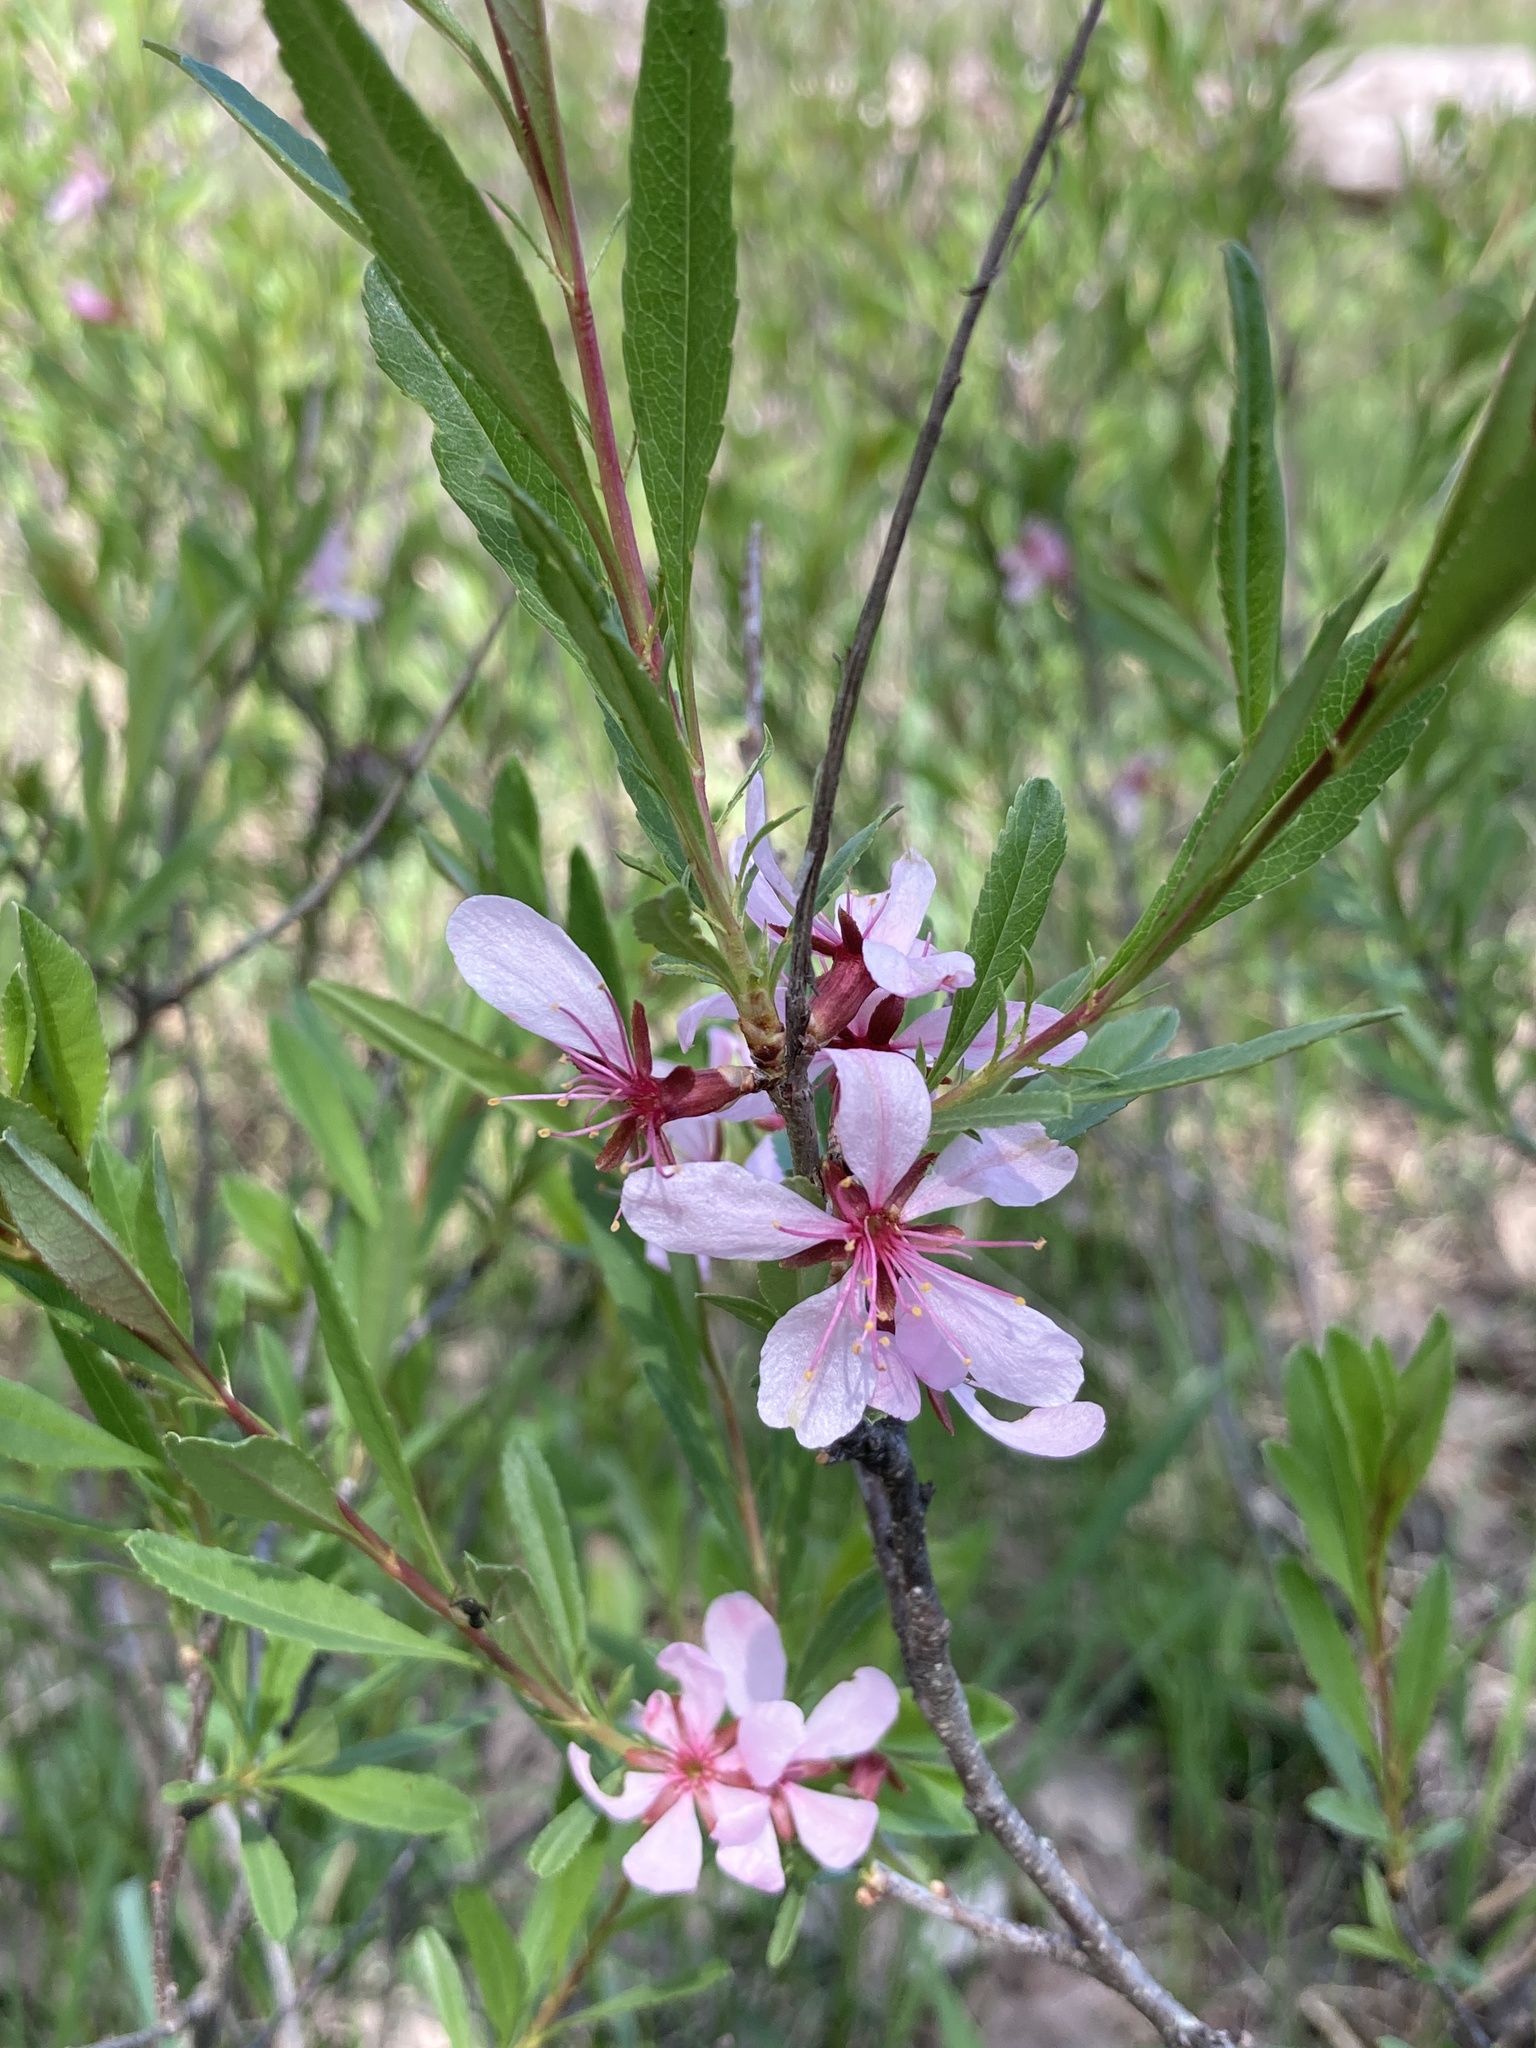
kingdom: Plantae
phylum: Tracheophyta
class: Magnoliopsida
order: Rosales
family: Rosaceae
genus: Prunus
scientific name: Prunus tenella
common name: Dwarf russian almond
